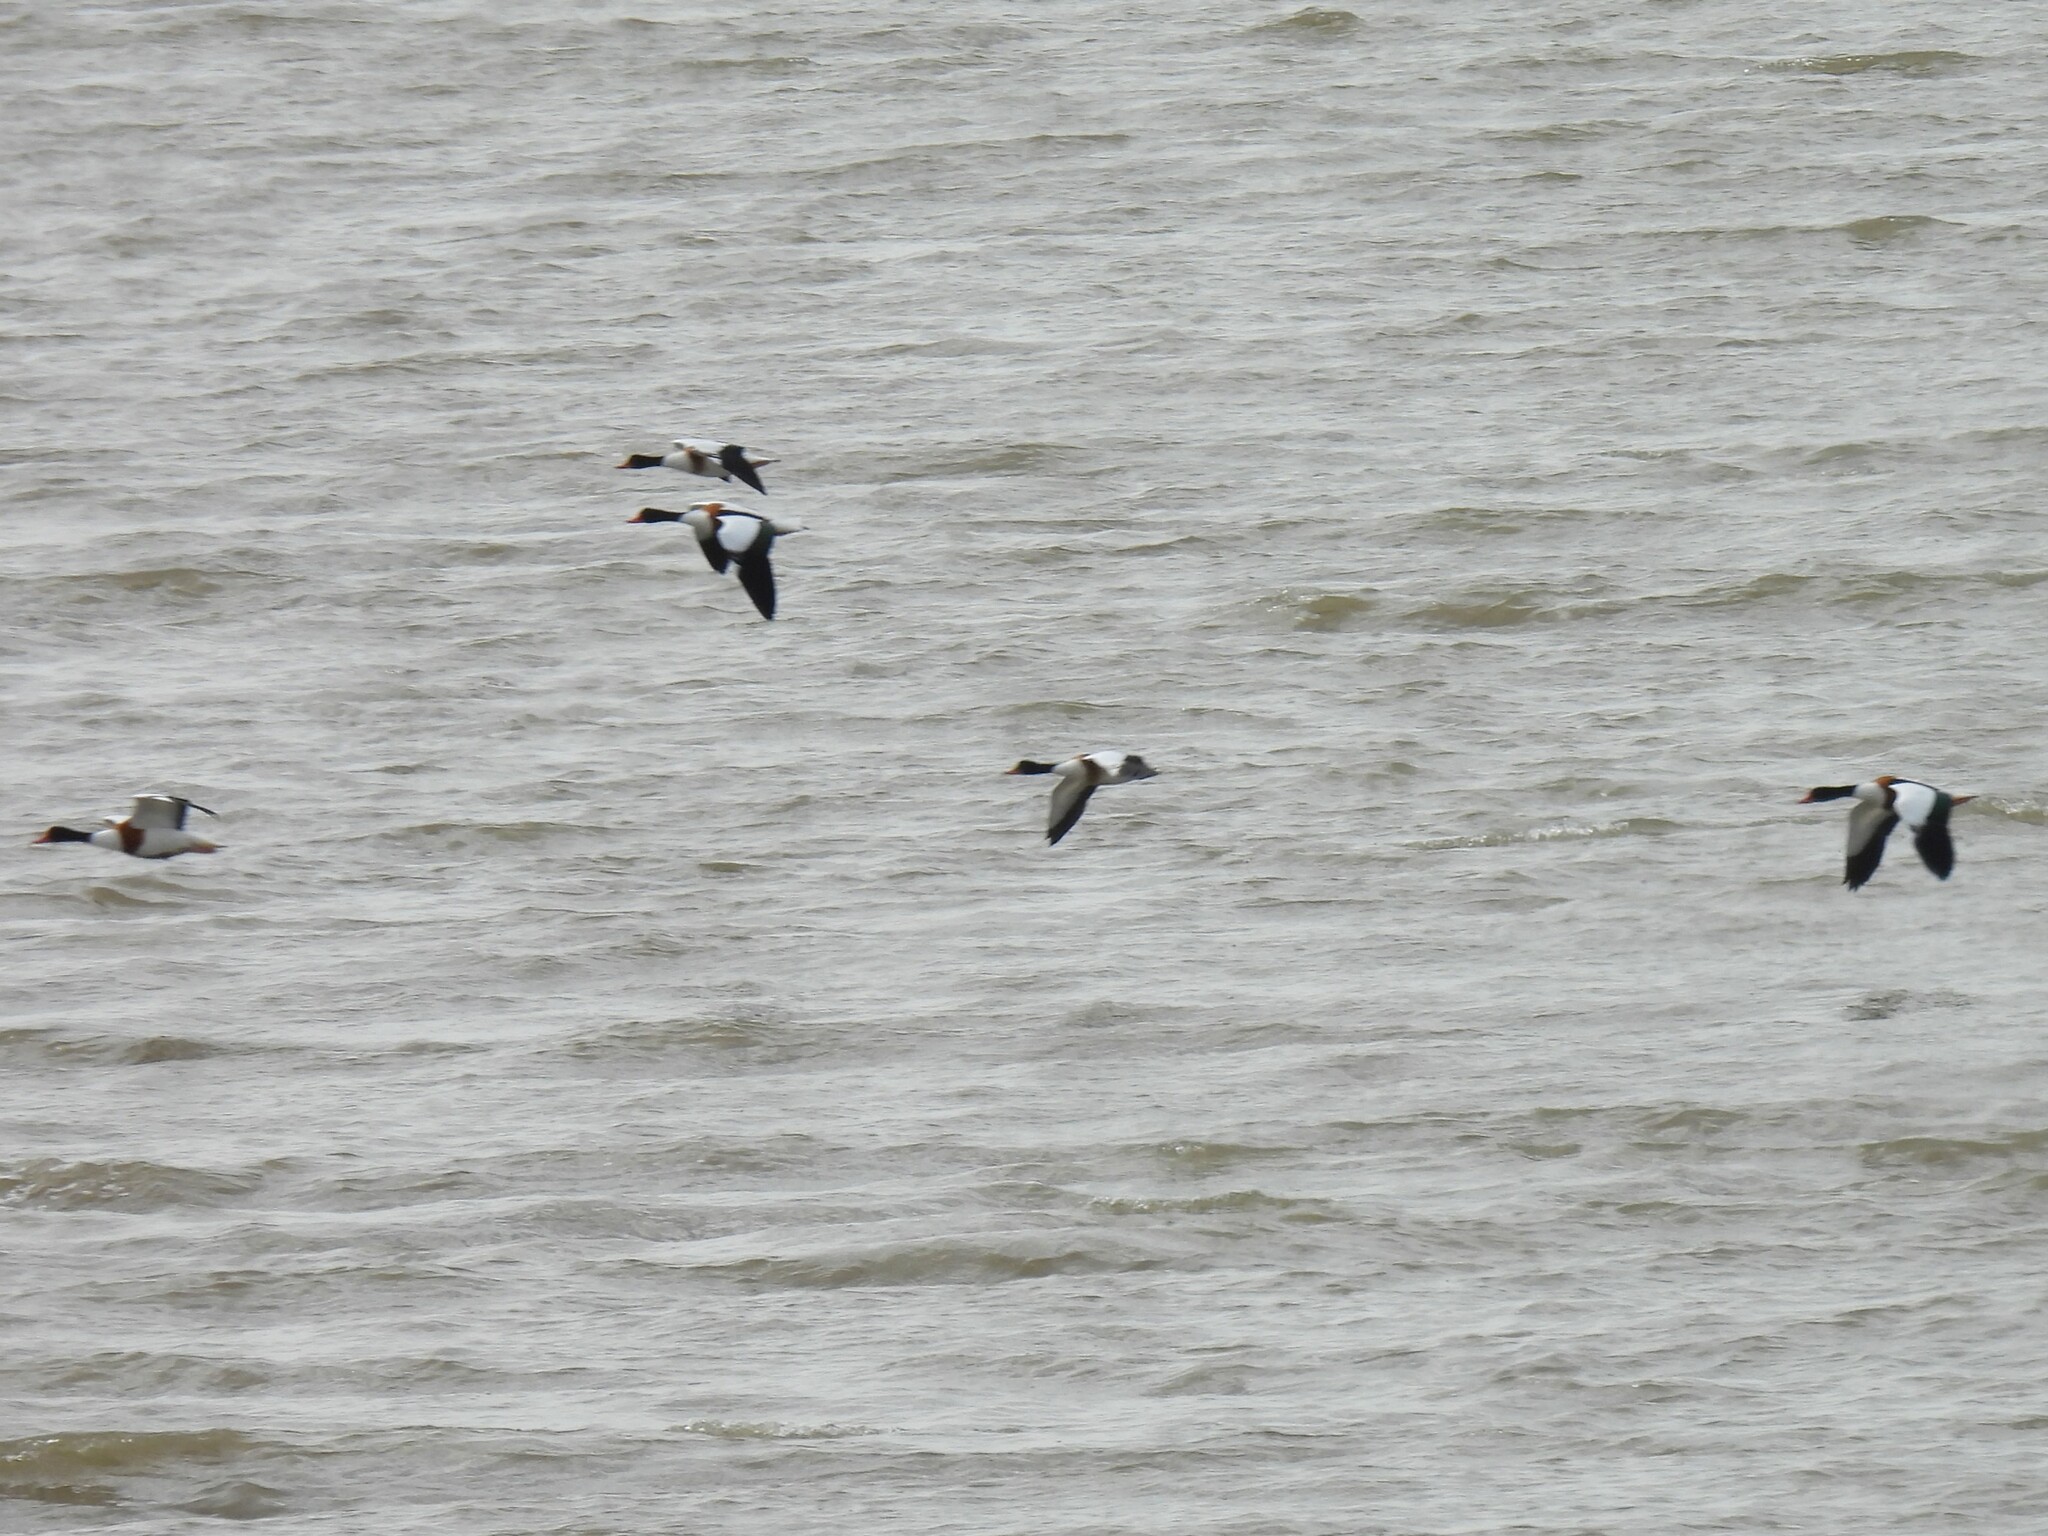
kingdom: Animalia
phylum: Chordata
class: Aves
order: Anseriformes
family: Anatidae
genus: Tadorna
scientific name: Tadorna tadorna
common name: Common shelduck
